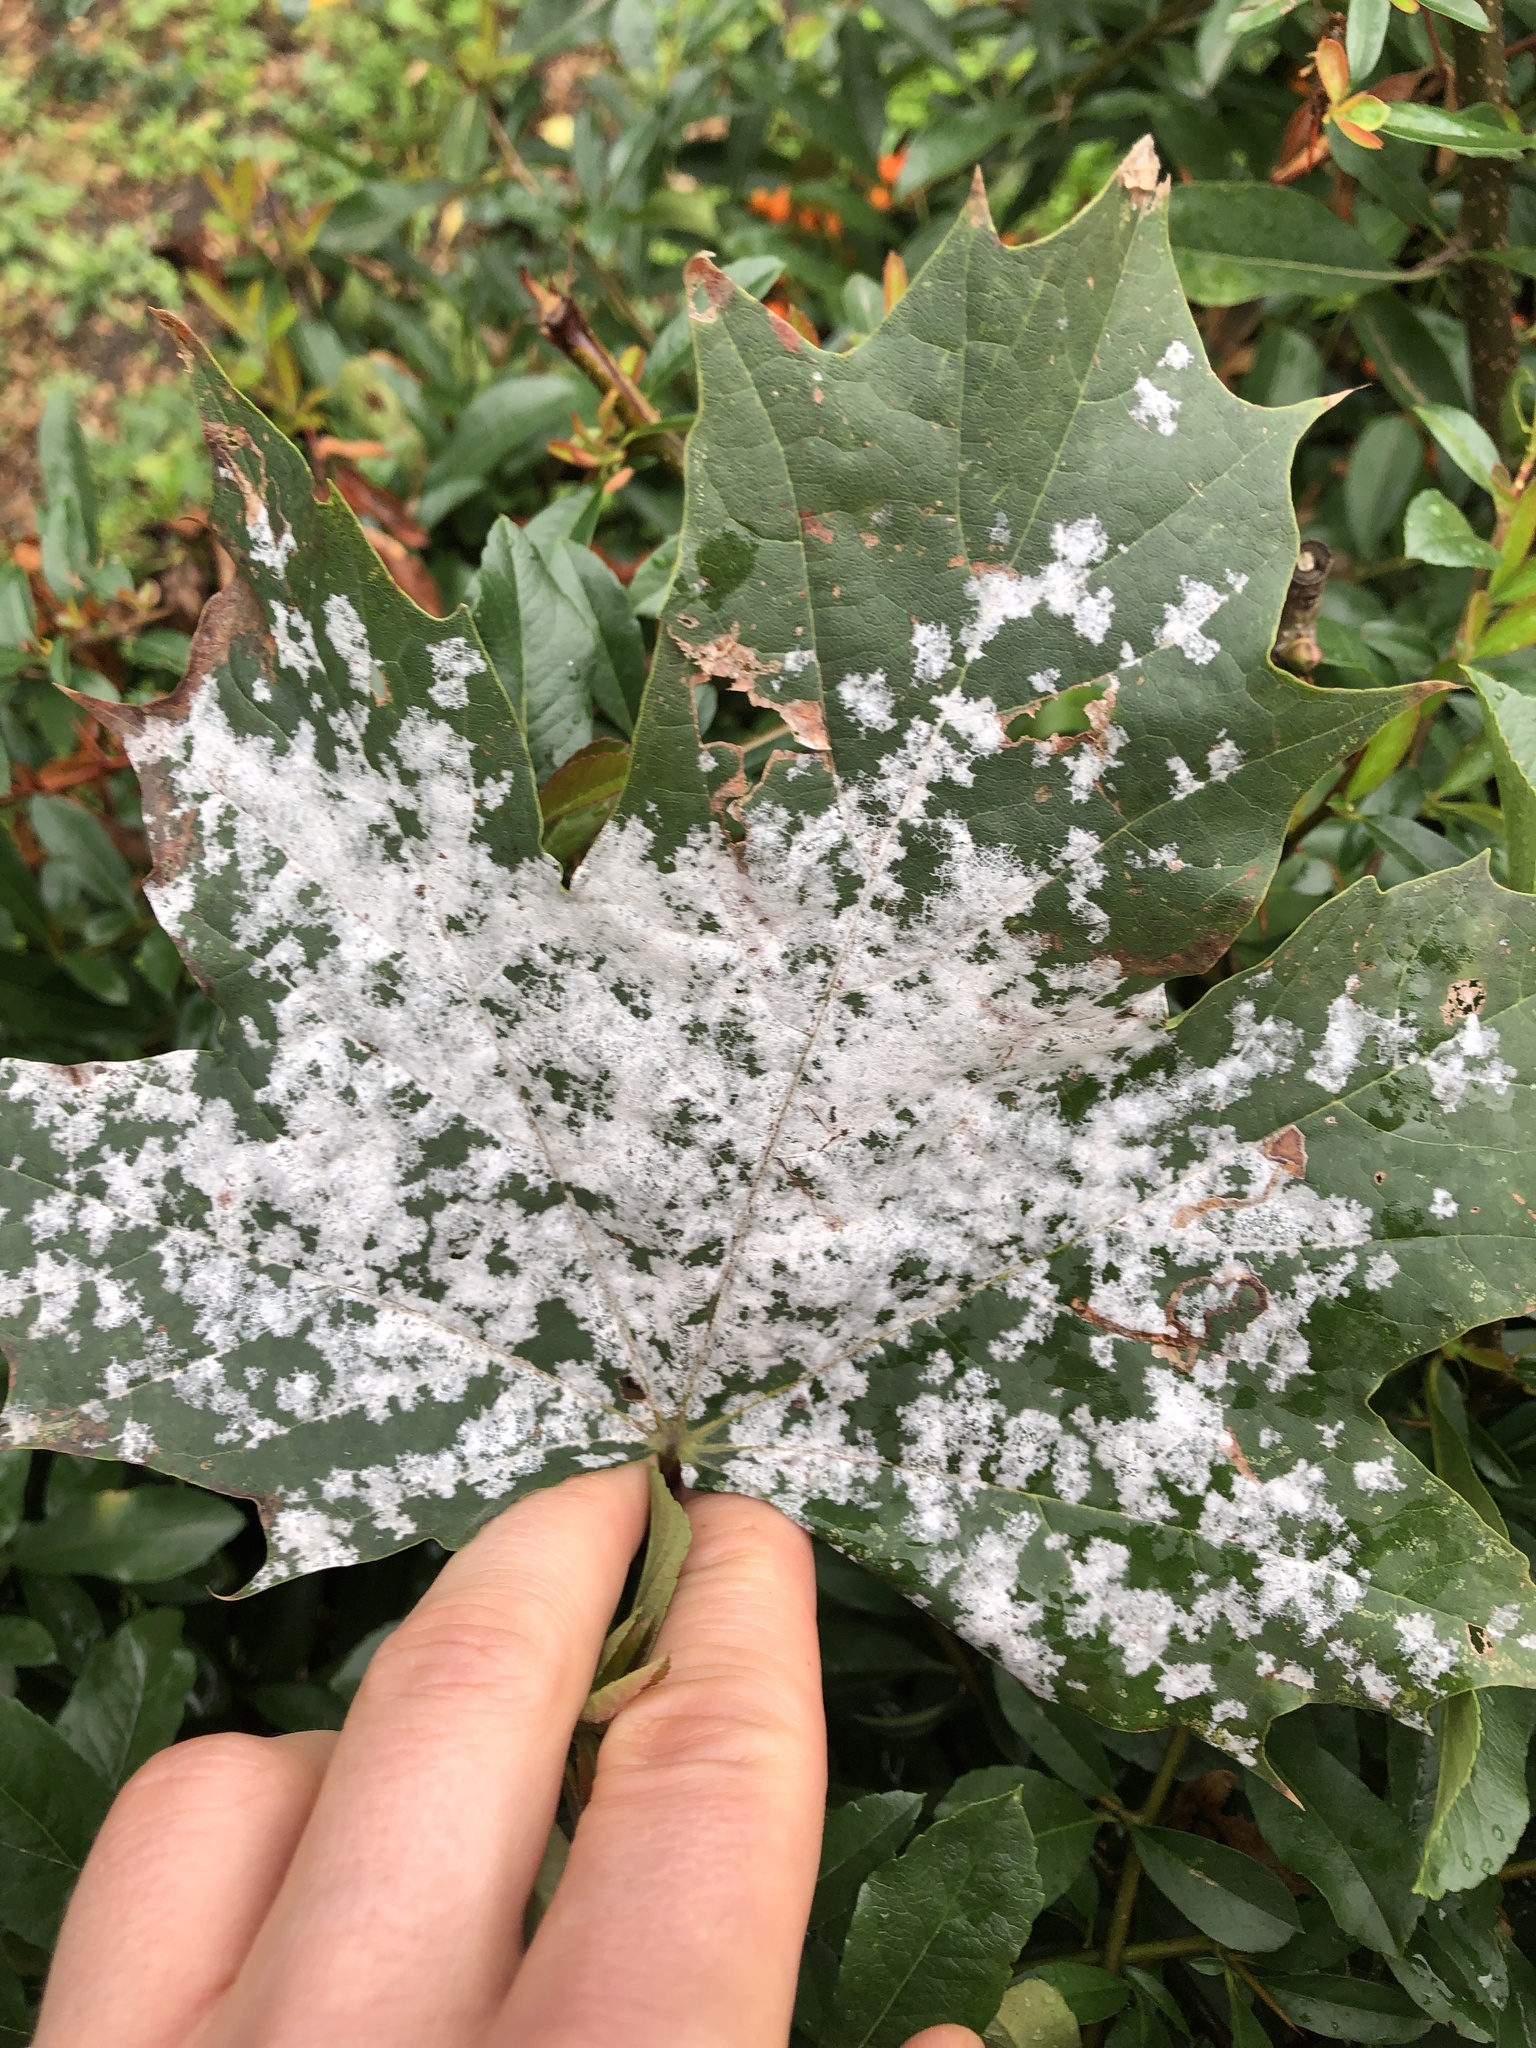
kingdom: Fungi
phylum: Ascomycota
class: Leotiomycetes
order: Helotiales
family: Erysiphaceae
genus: Sawadaea
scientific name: Sawadaea tulasnei
